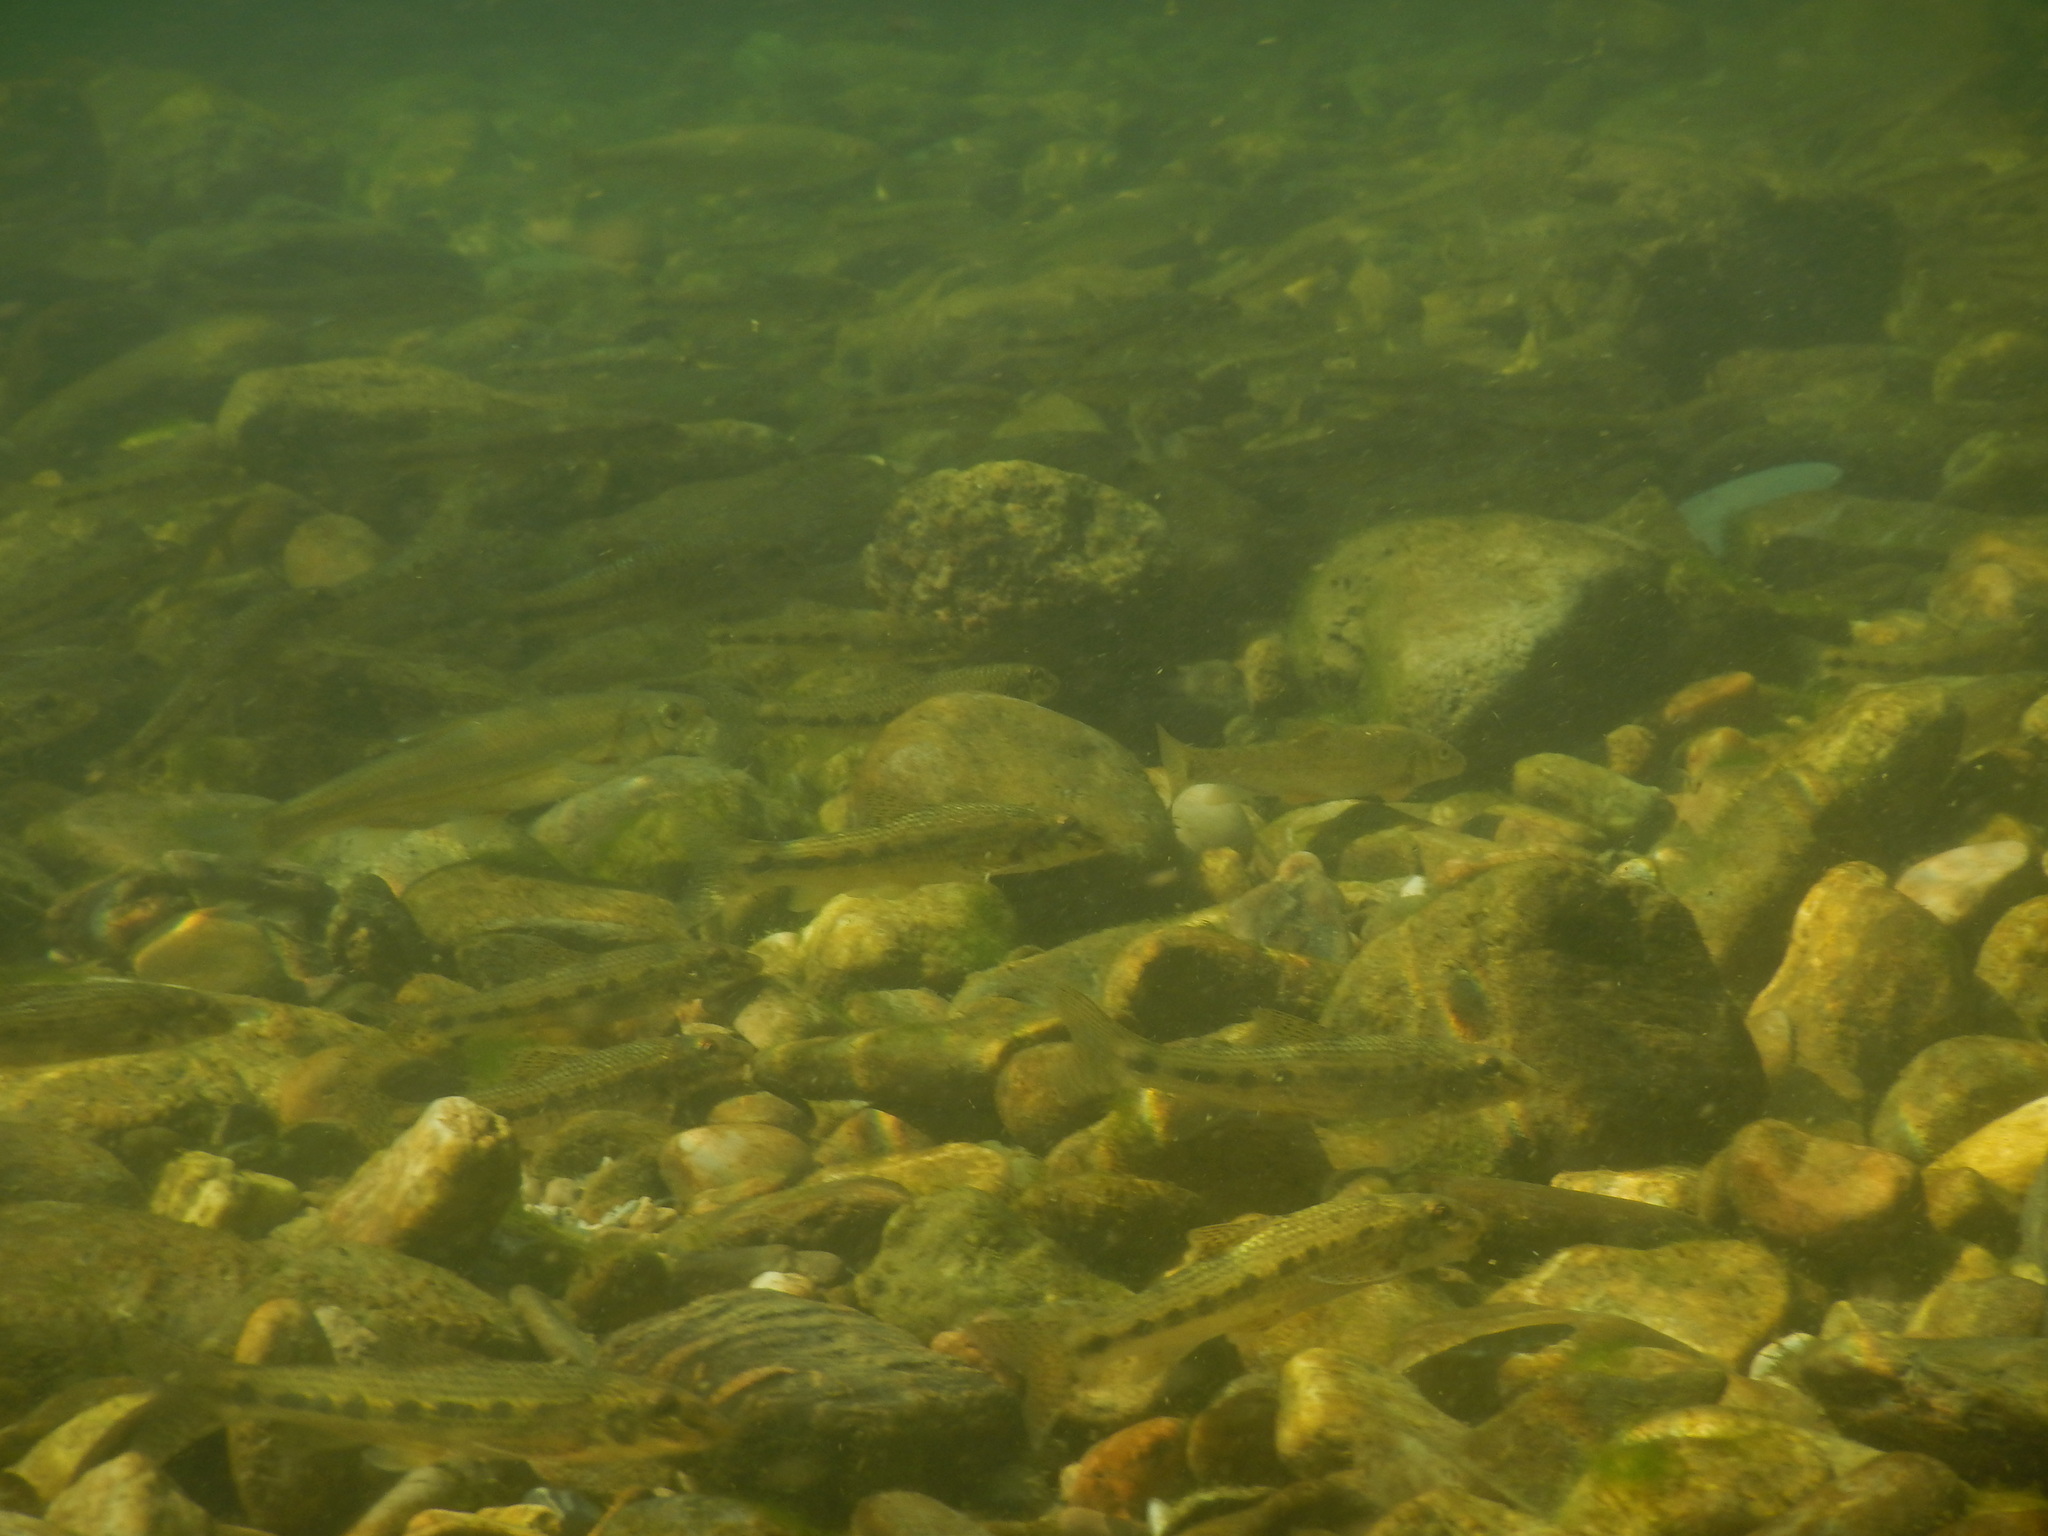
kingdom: Animalia
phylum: Chordata
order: Cypriniformes
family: Cyprinidae
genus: Gobio
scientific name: Gobio occitaniae
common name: Languedoc gudgeon
